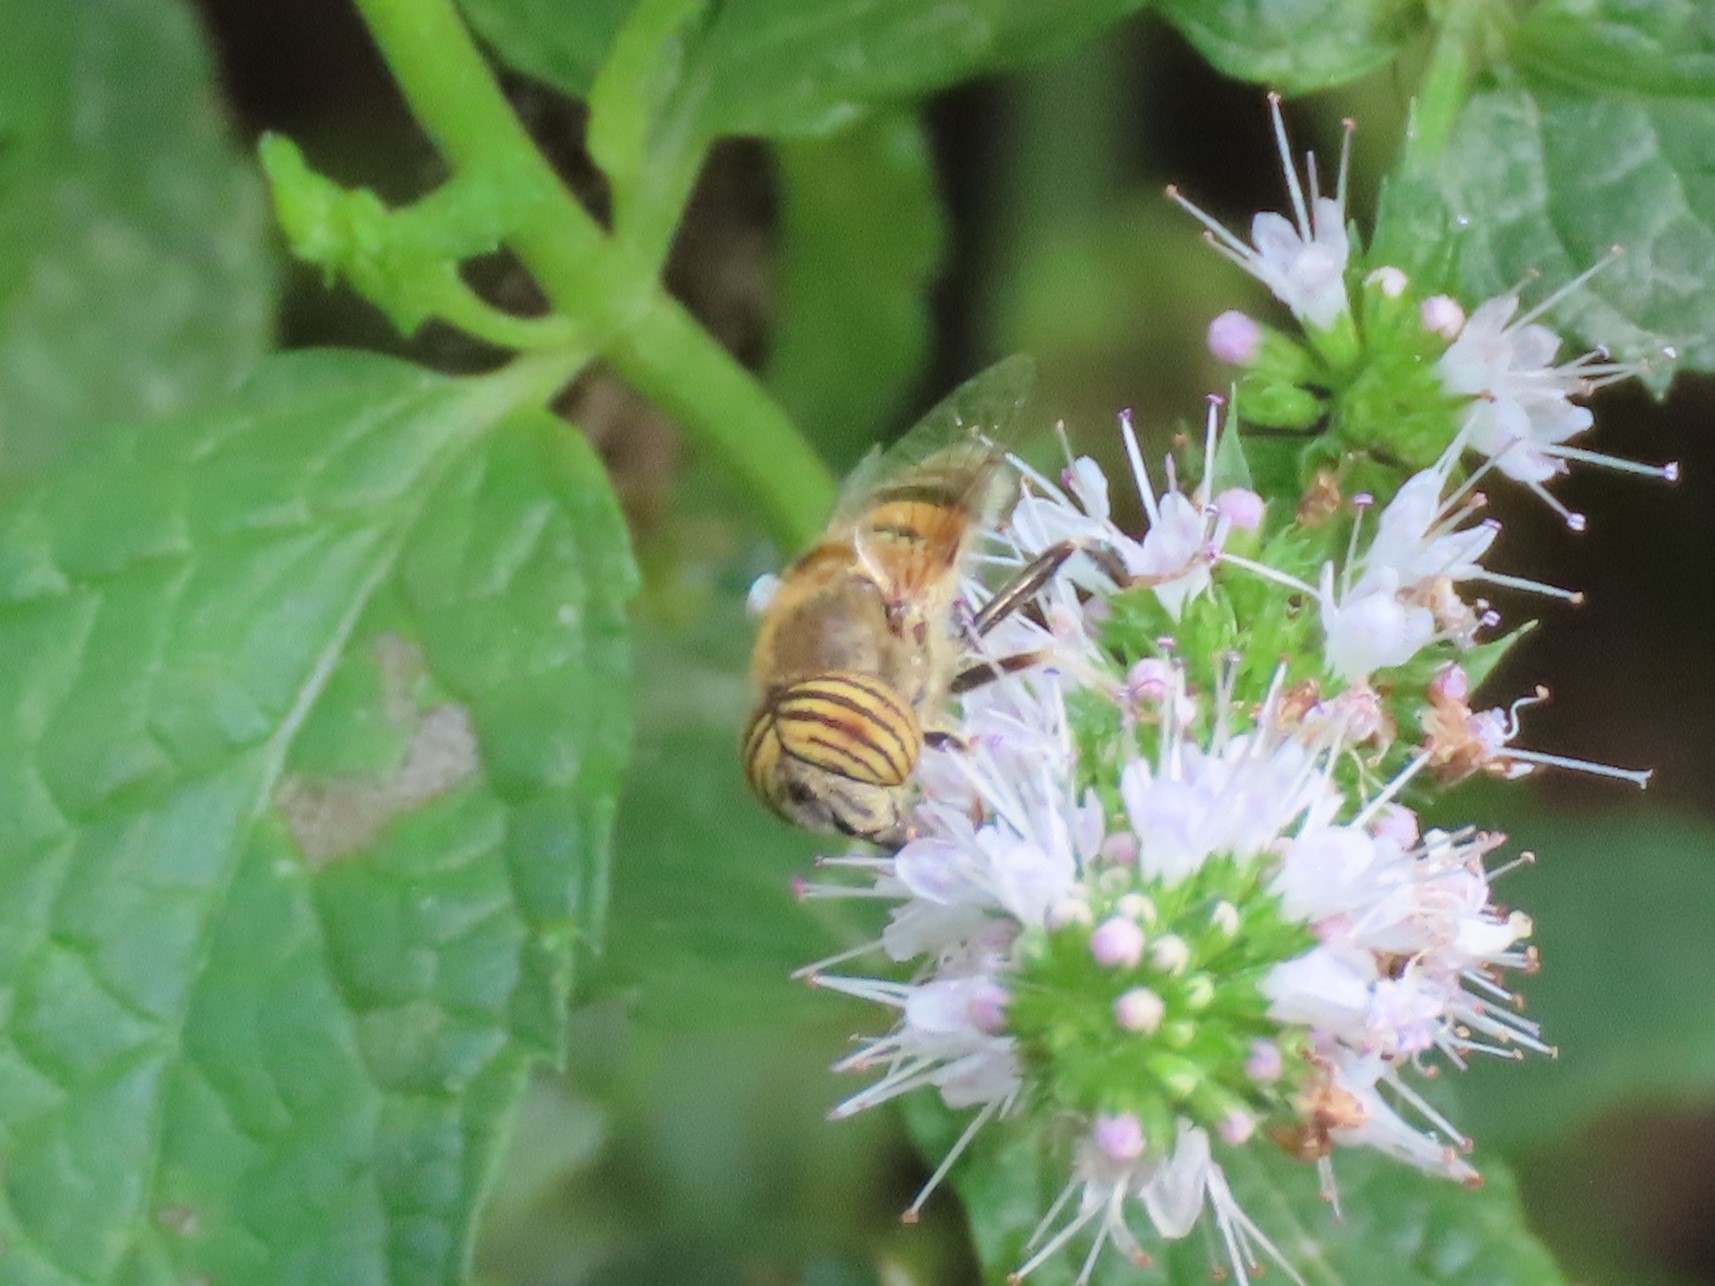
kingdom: Animalia
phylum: Arthropoda
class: Insecta
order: Diptera
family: Syrphidae
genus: Eristalinus
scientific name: Eristalinus taeniops
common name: Syrphid fly
